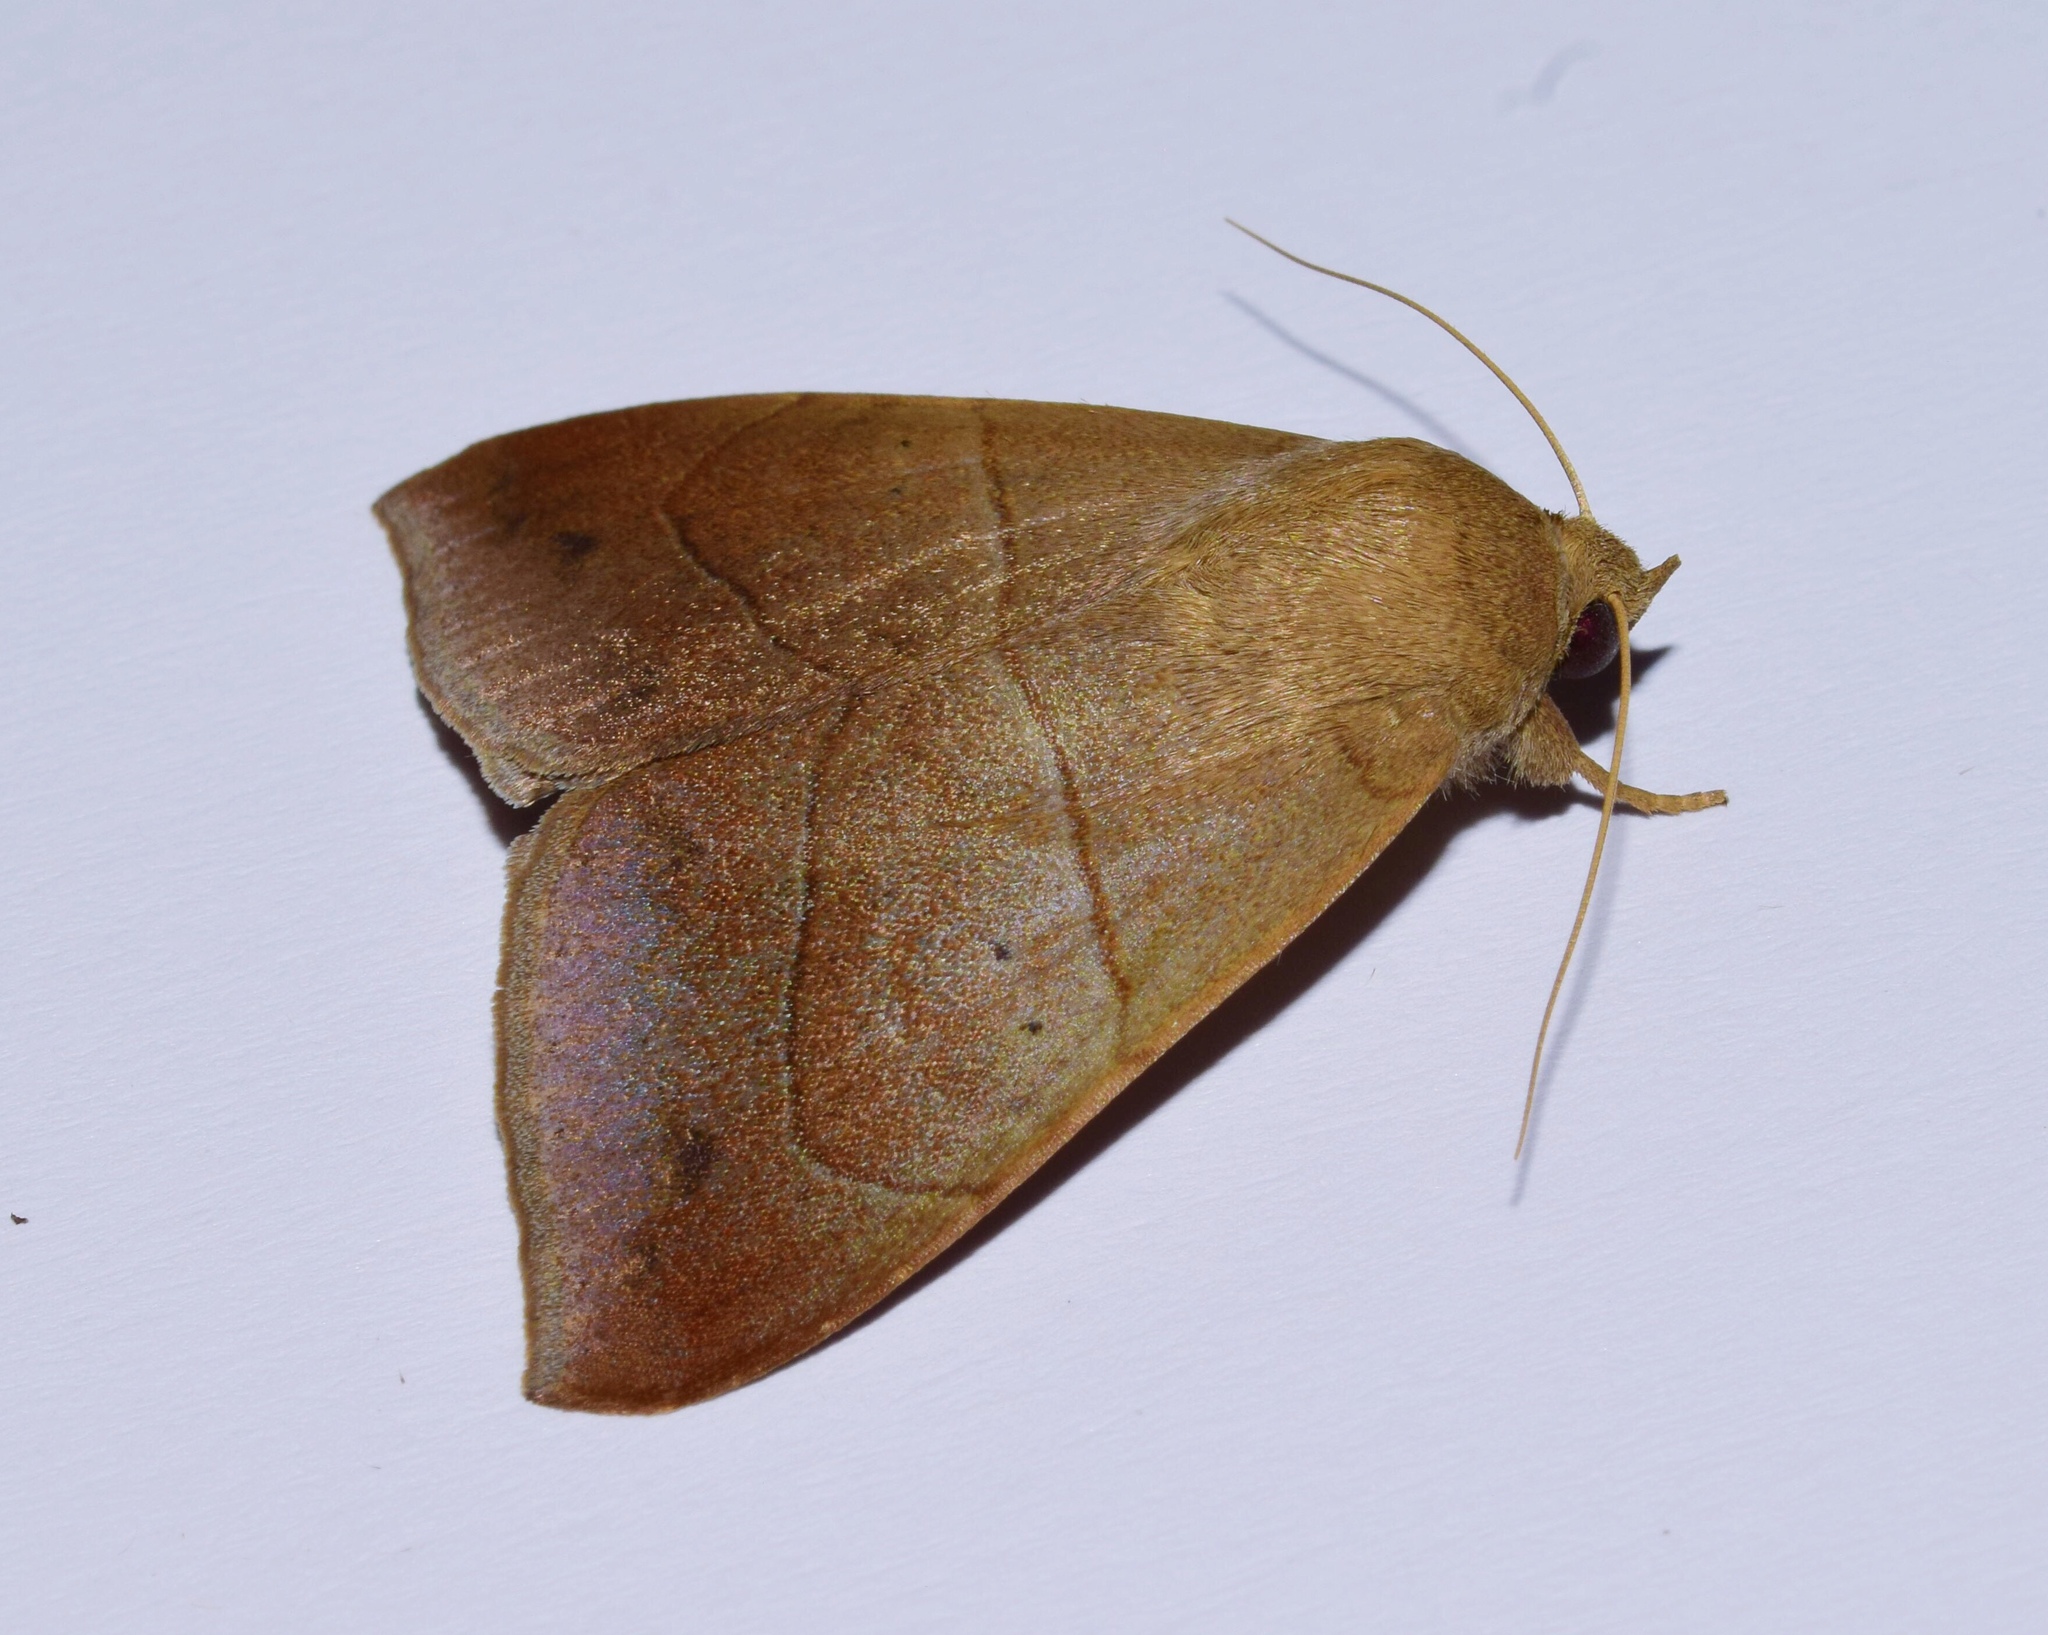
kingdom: Animalia
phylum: Arthropoda
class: Insecta
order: Lepidoptera
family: Erebidae
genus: Achaea
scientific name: Achaea indeterminata
